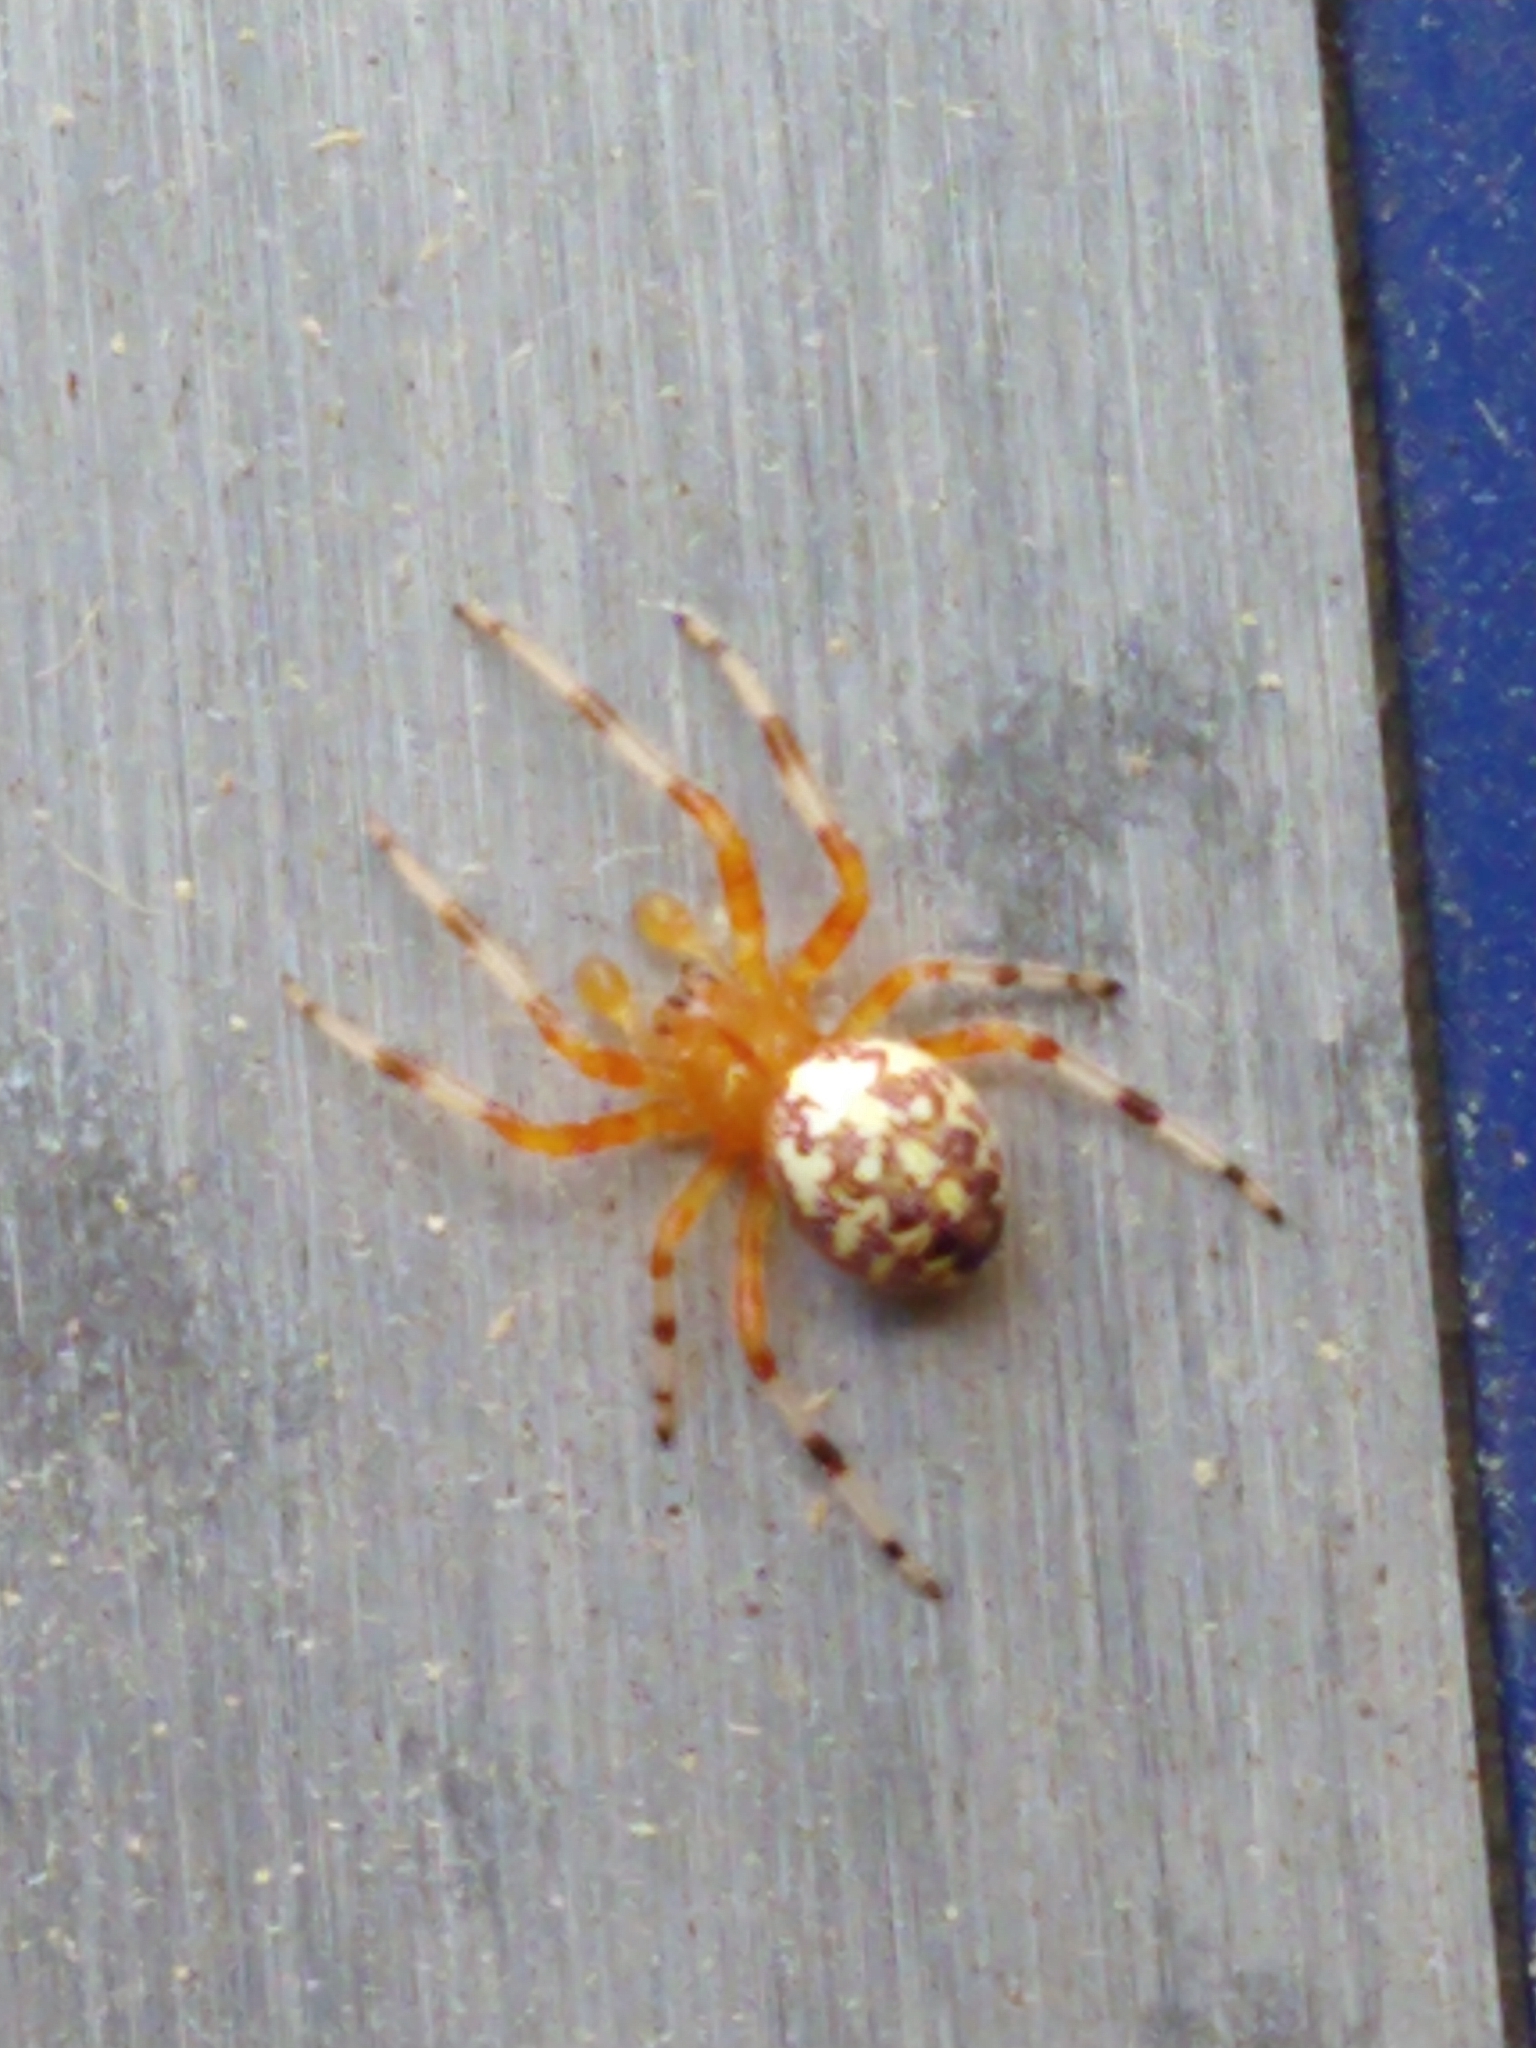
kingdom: Animalia
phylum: Arthropoda
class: Arachnida
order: Araneae
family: Araneidae
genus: Araneus
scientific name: Araneus marmoreus
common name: Marbled orbweaver
